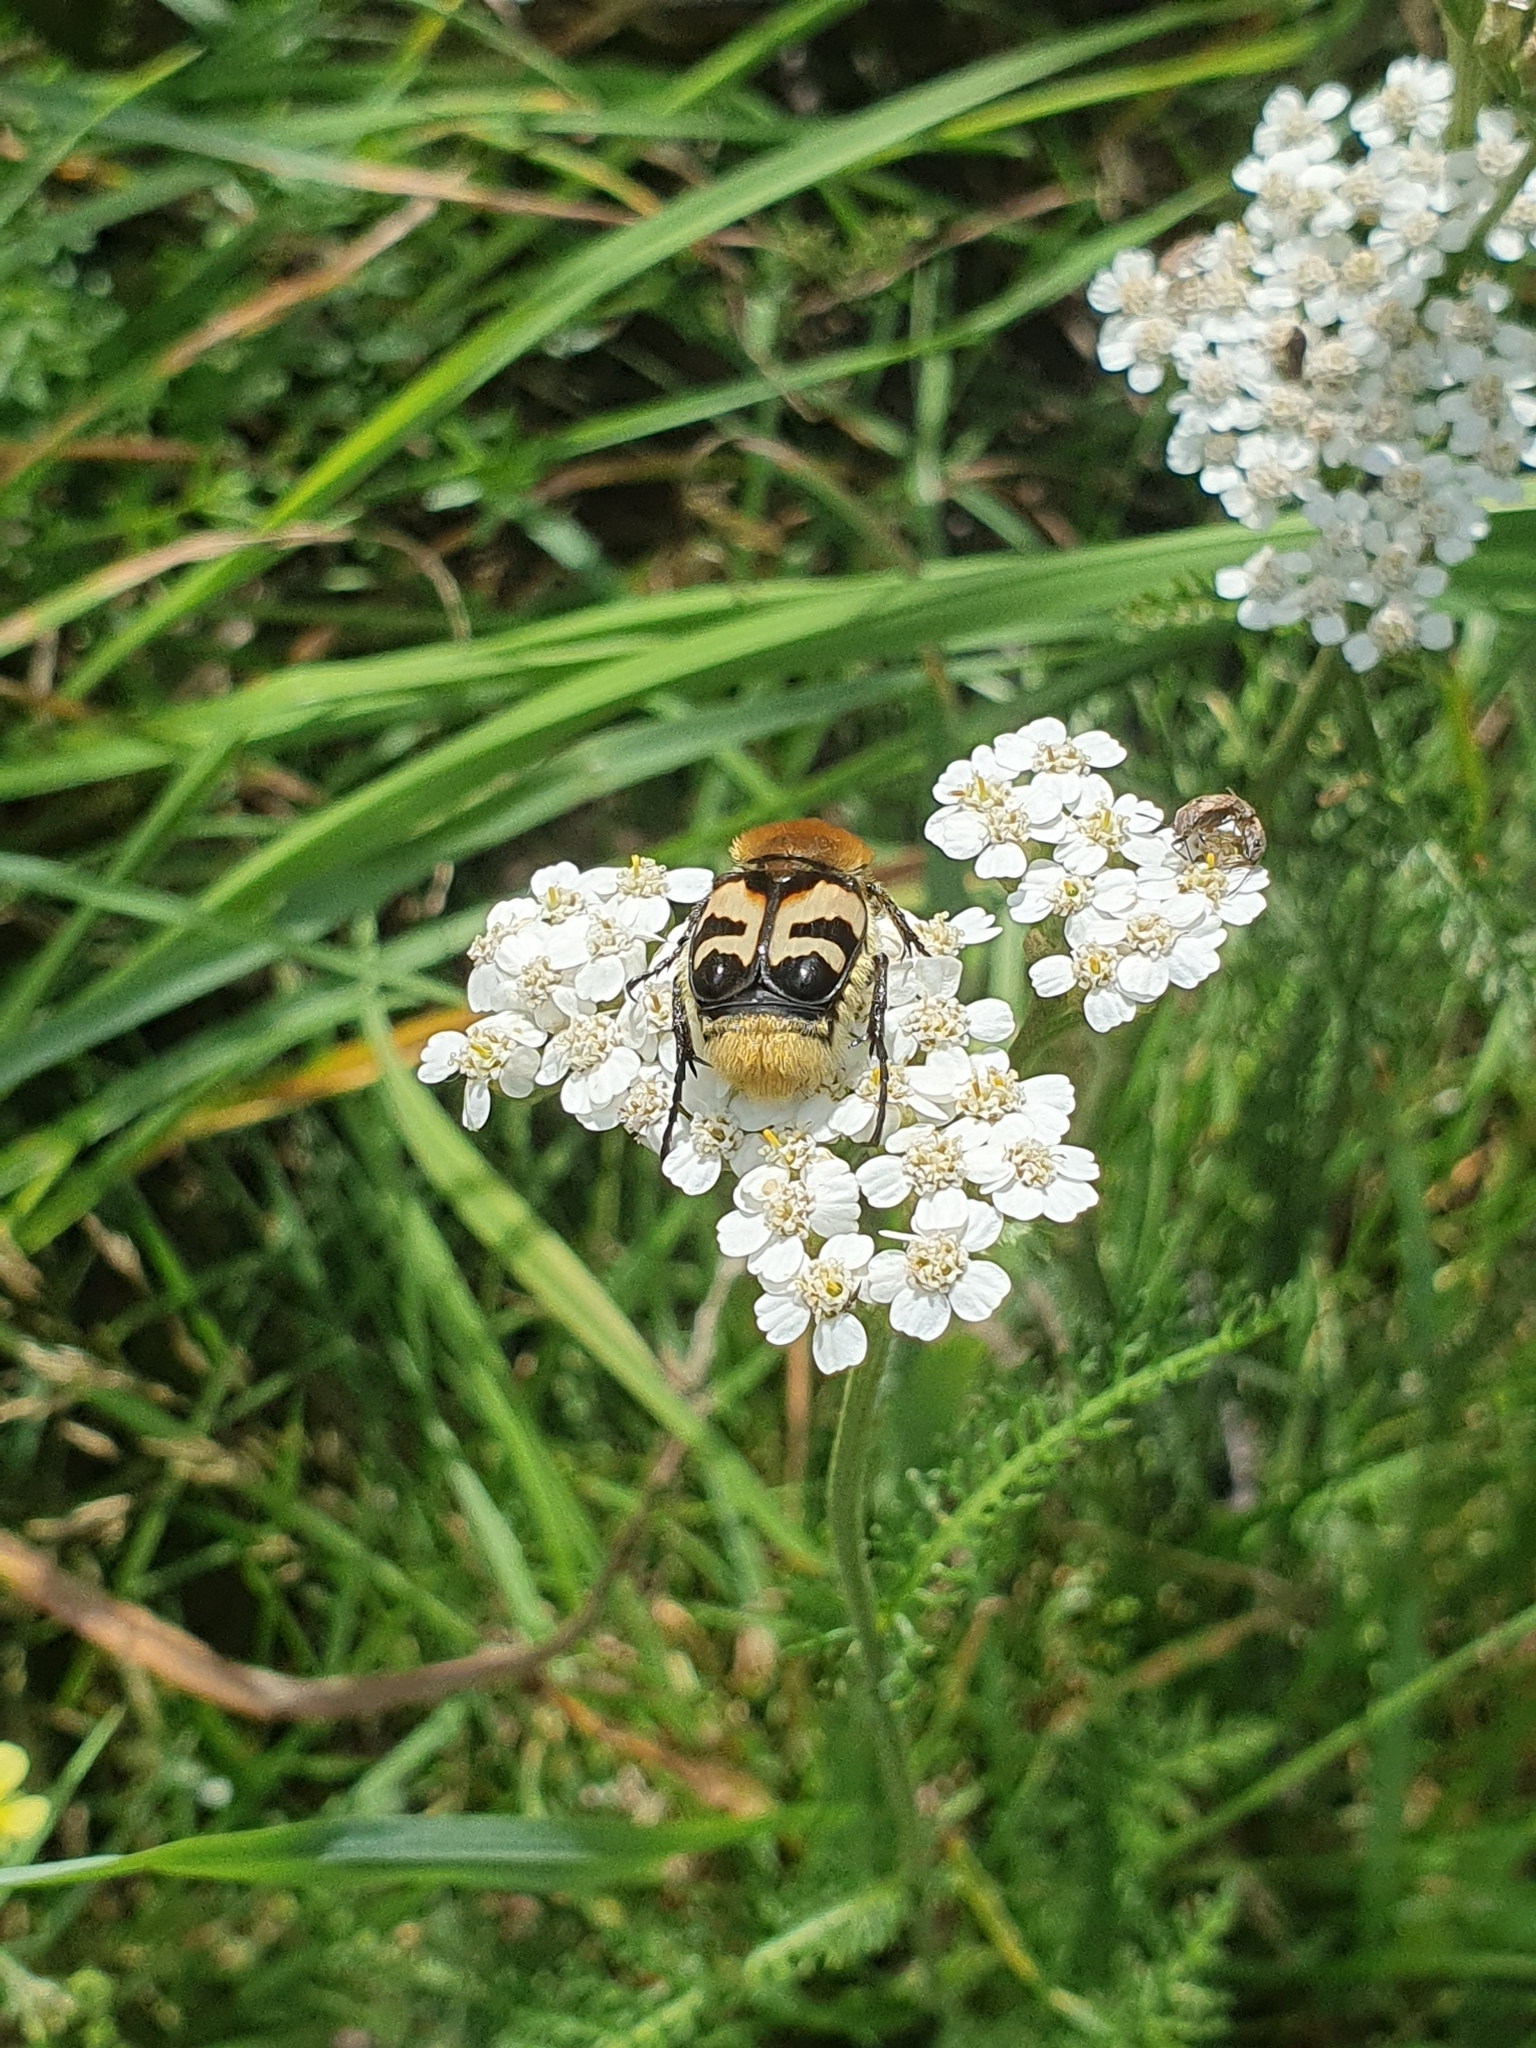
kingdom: Animalia
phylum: Arthropoda
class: Insecta
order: Coleoptera
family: Scarabaeidae
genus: Trichius
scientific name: Trichius fasciatus
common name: Bee beetle
